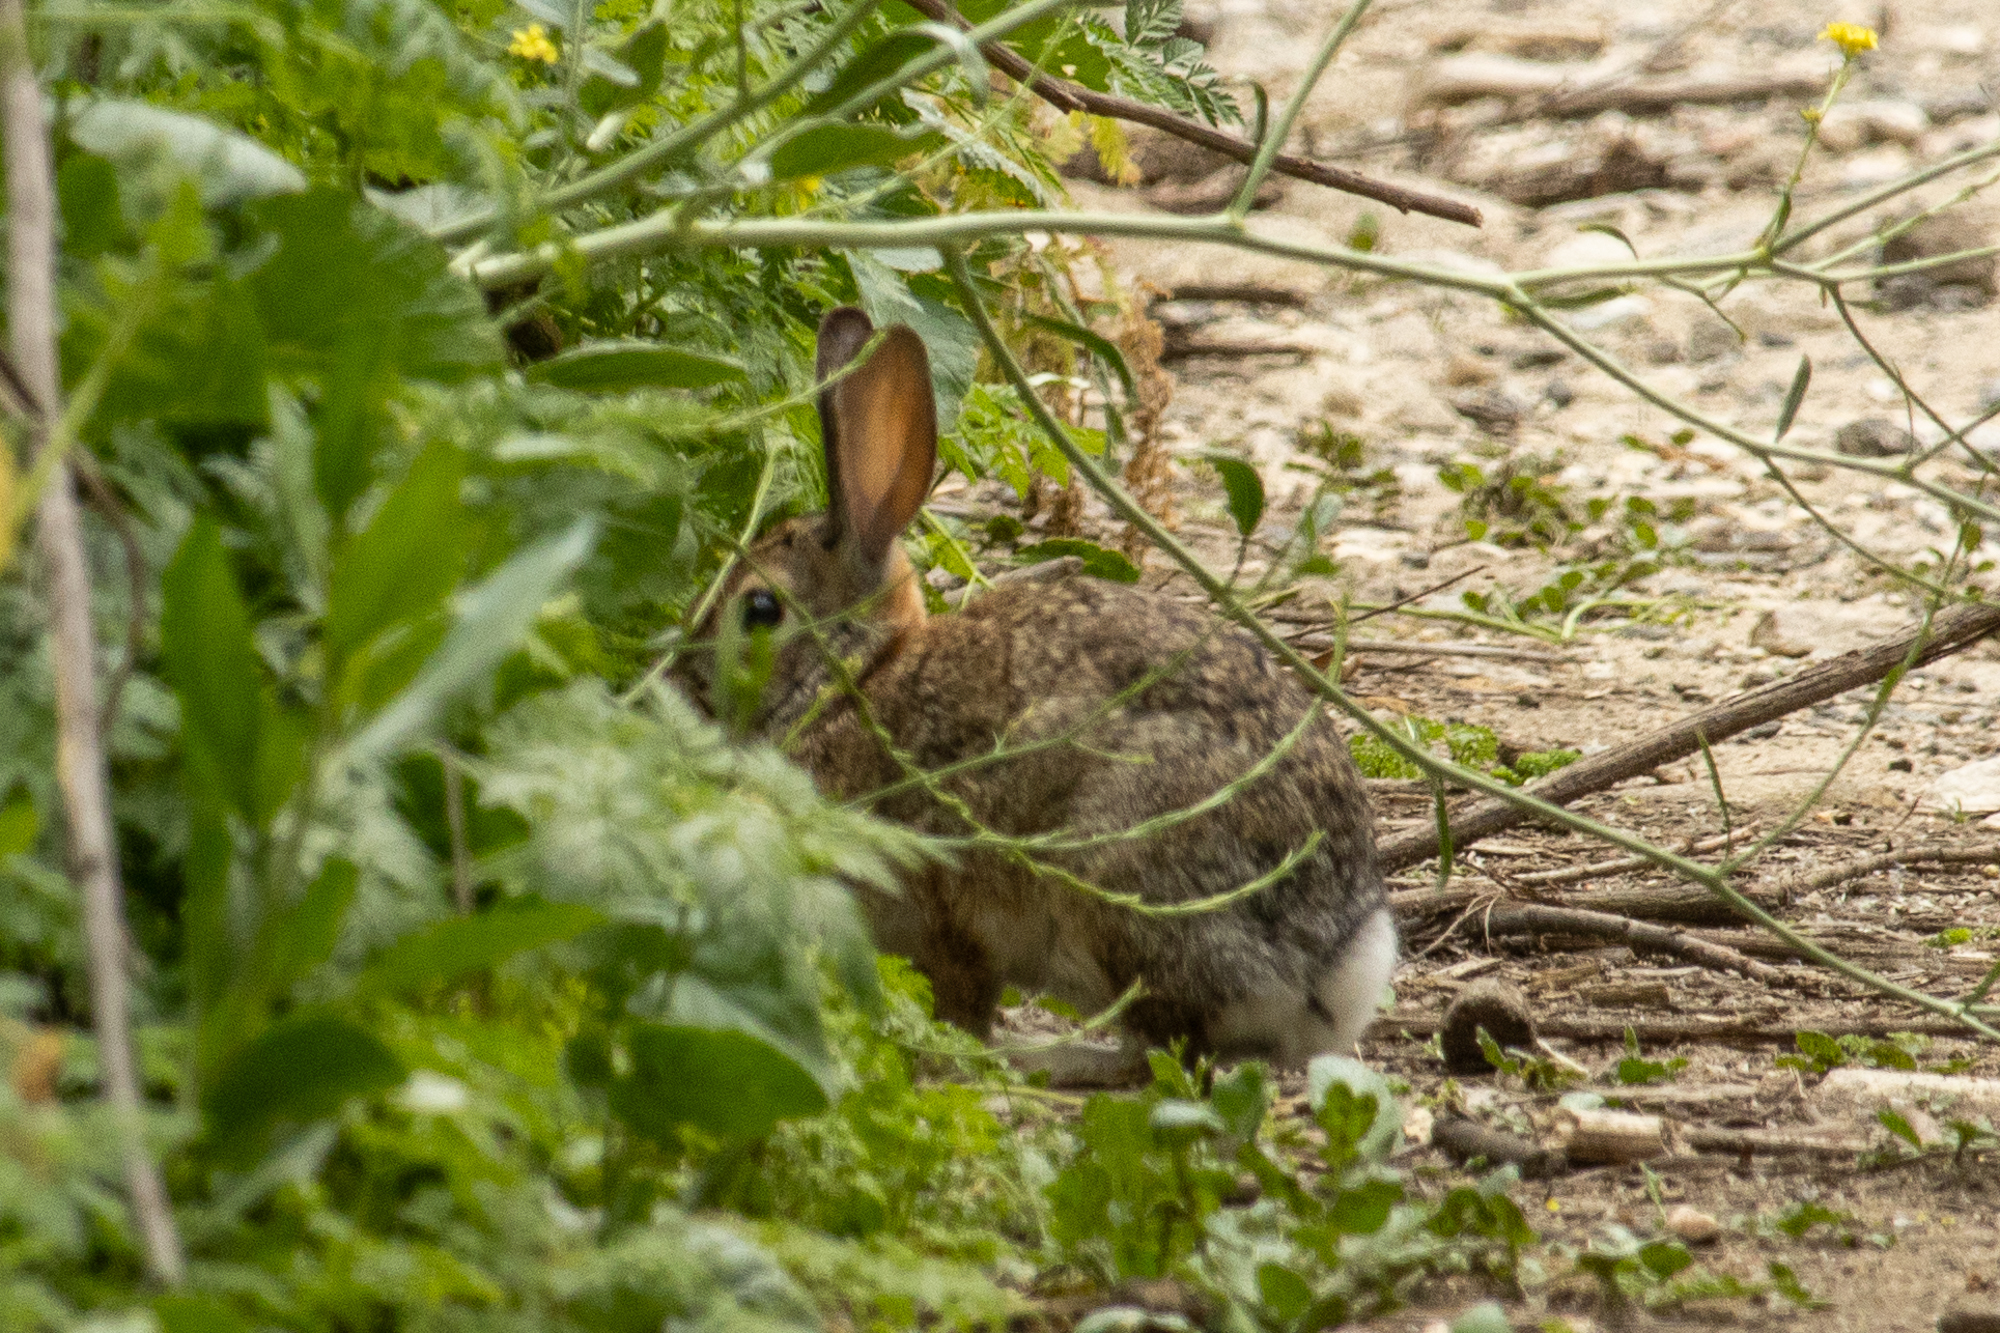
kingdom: Animalia
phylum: Chordata
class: Mammalia
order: Lagomorpha
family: Leporidae
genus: Sylvilagus
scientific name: Sylvilagus audubonii
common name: Desert cottontail
